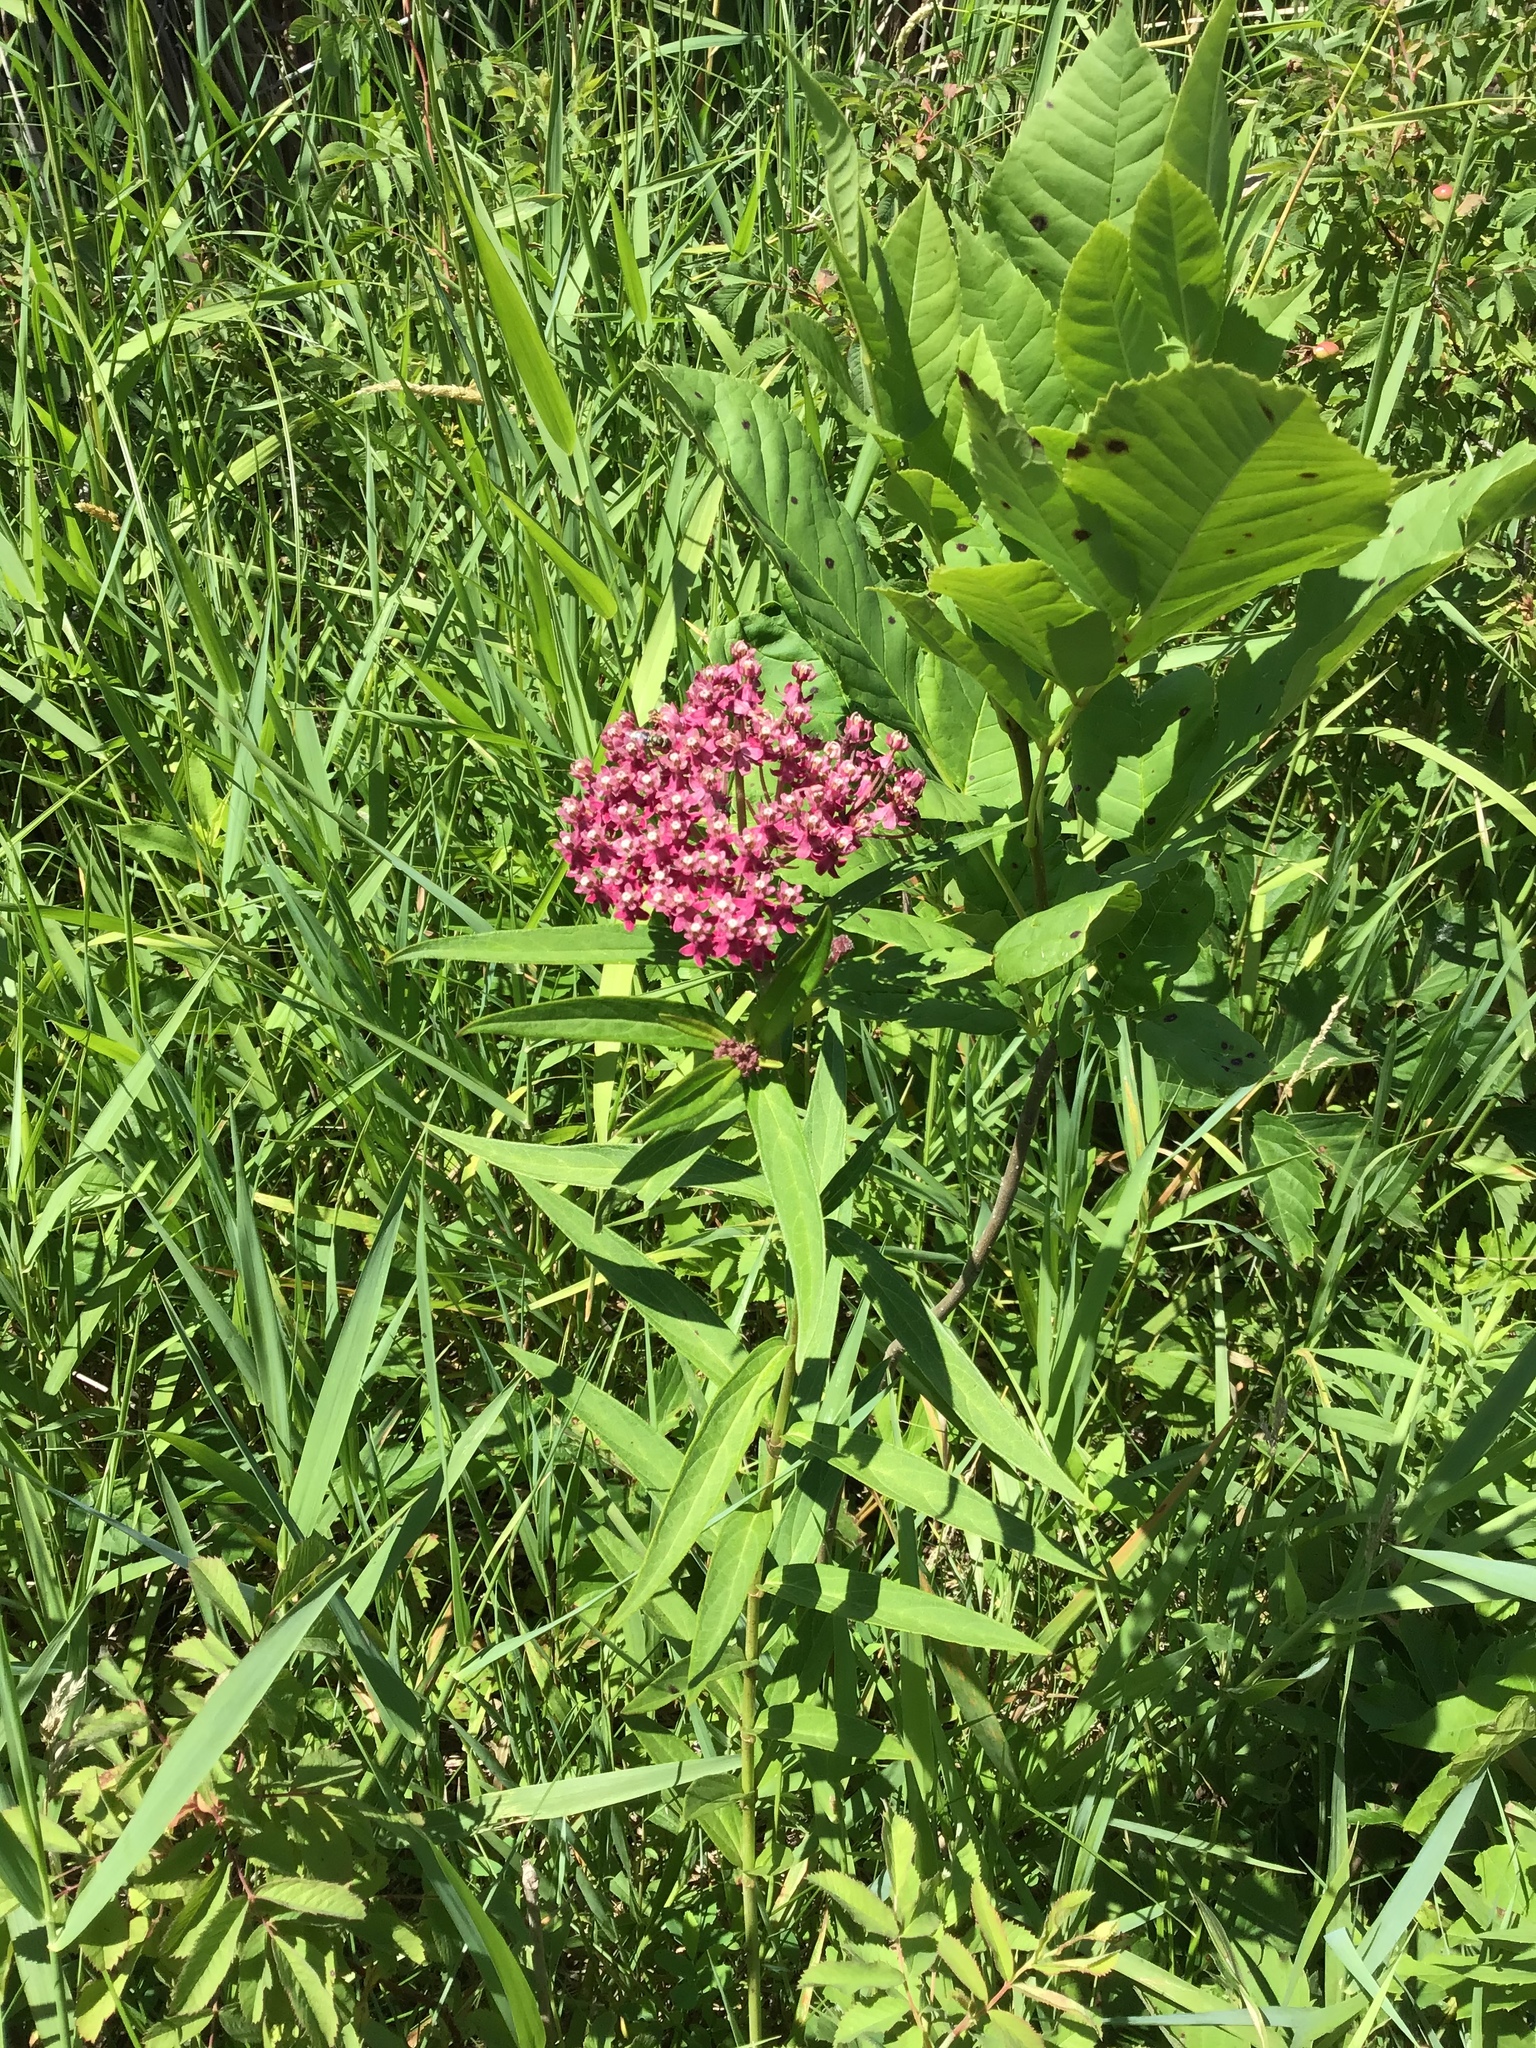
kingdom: Plantae
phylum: Tracheophyta
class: Magnoliopsida
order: Gentianales
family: Apocynaceae
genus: Asclepias
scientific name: Asclepias incarnata
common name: Swamp milkweed
